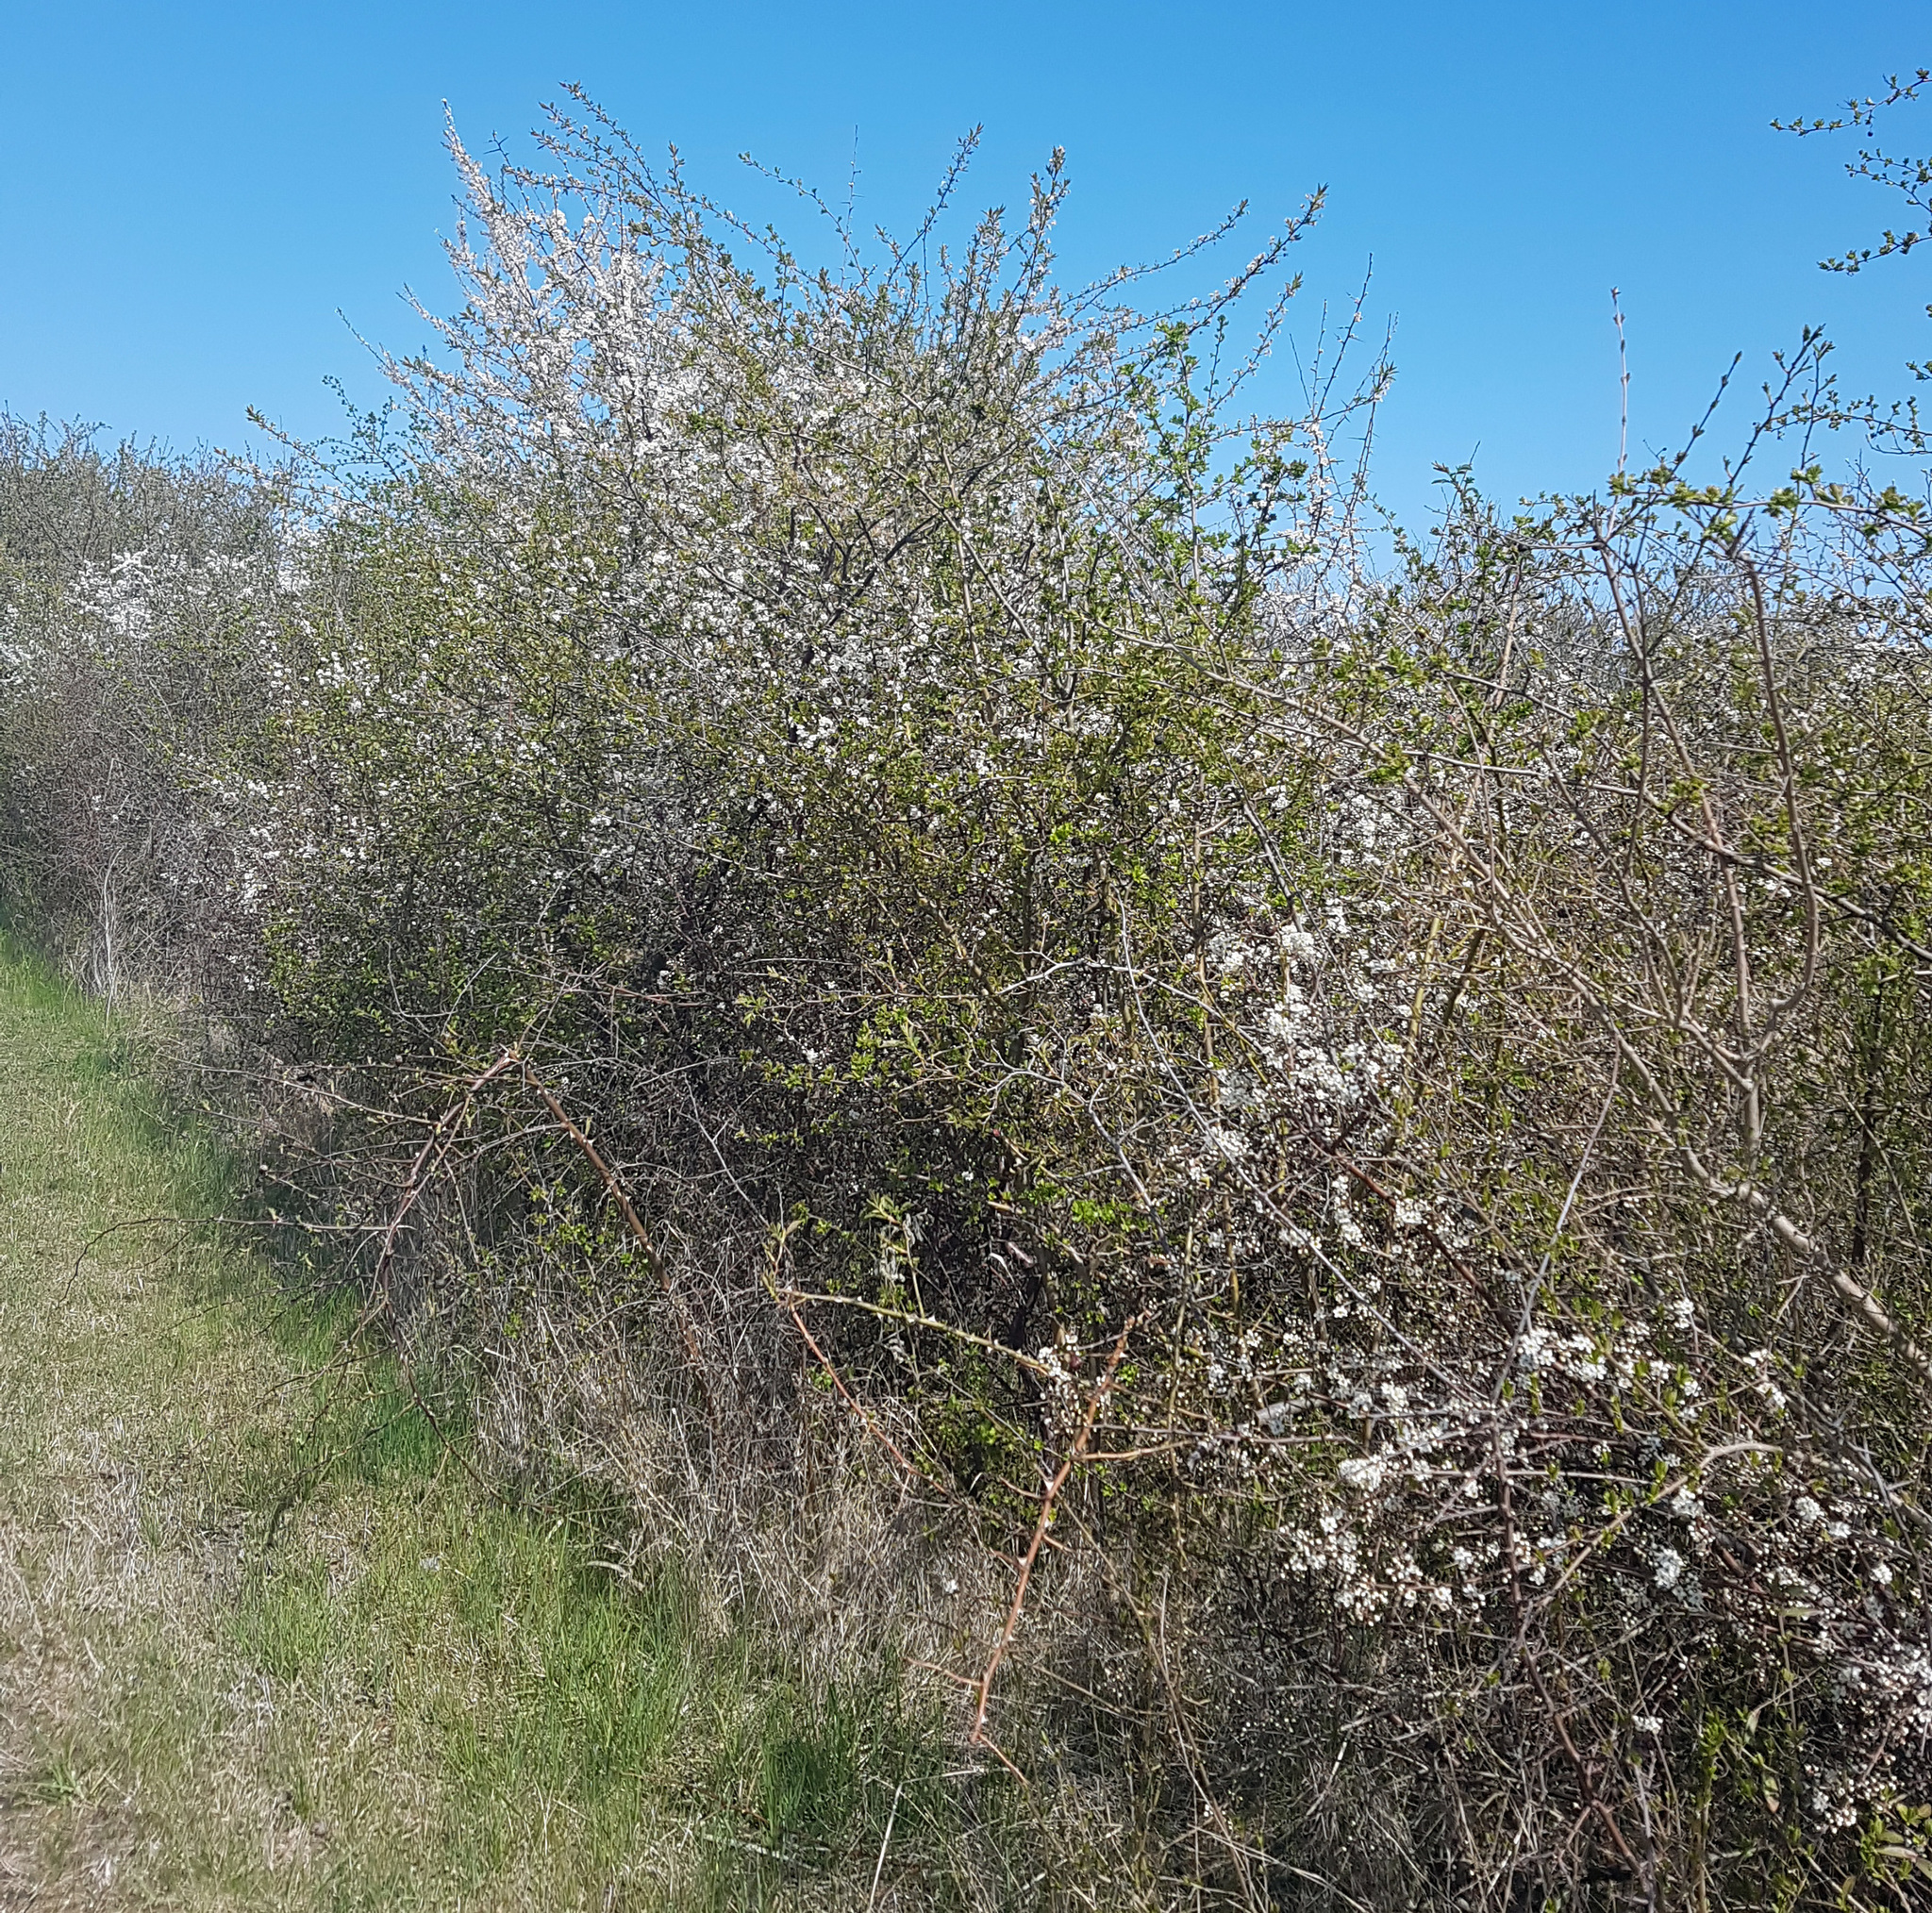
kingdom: Plantae
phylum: Tracheophyta
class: Magnoliopsida
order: Rosales
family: Rosaceae
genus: Prunus
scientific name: Prunus cerasifera
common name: Cherry plum
